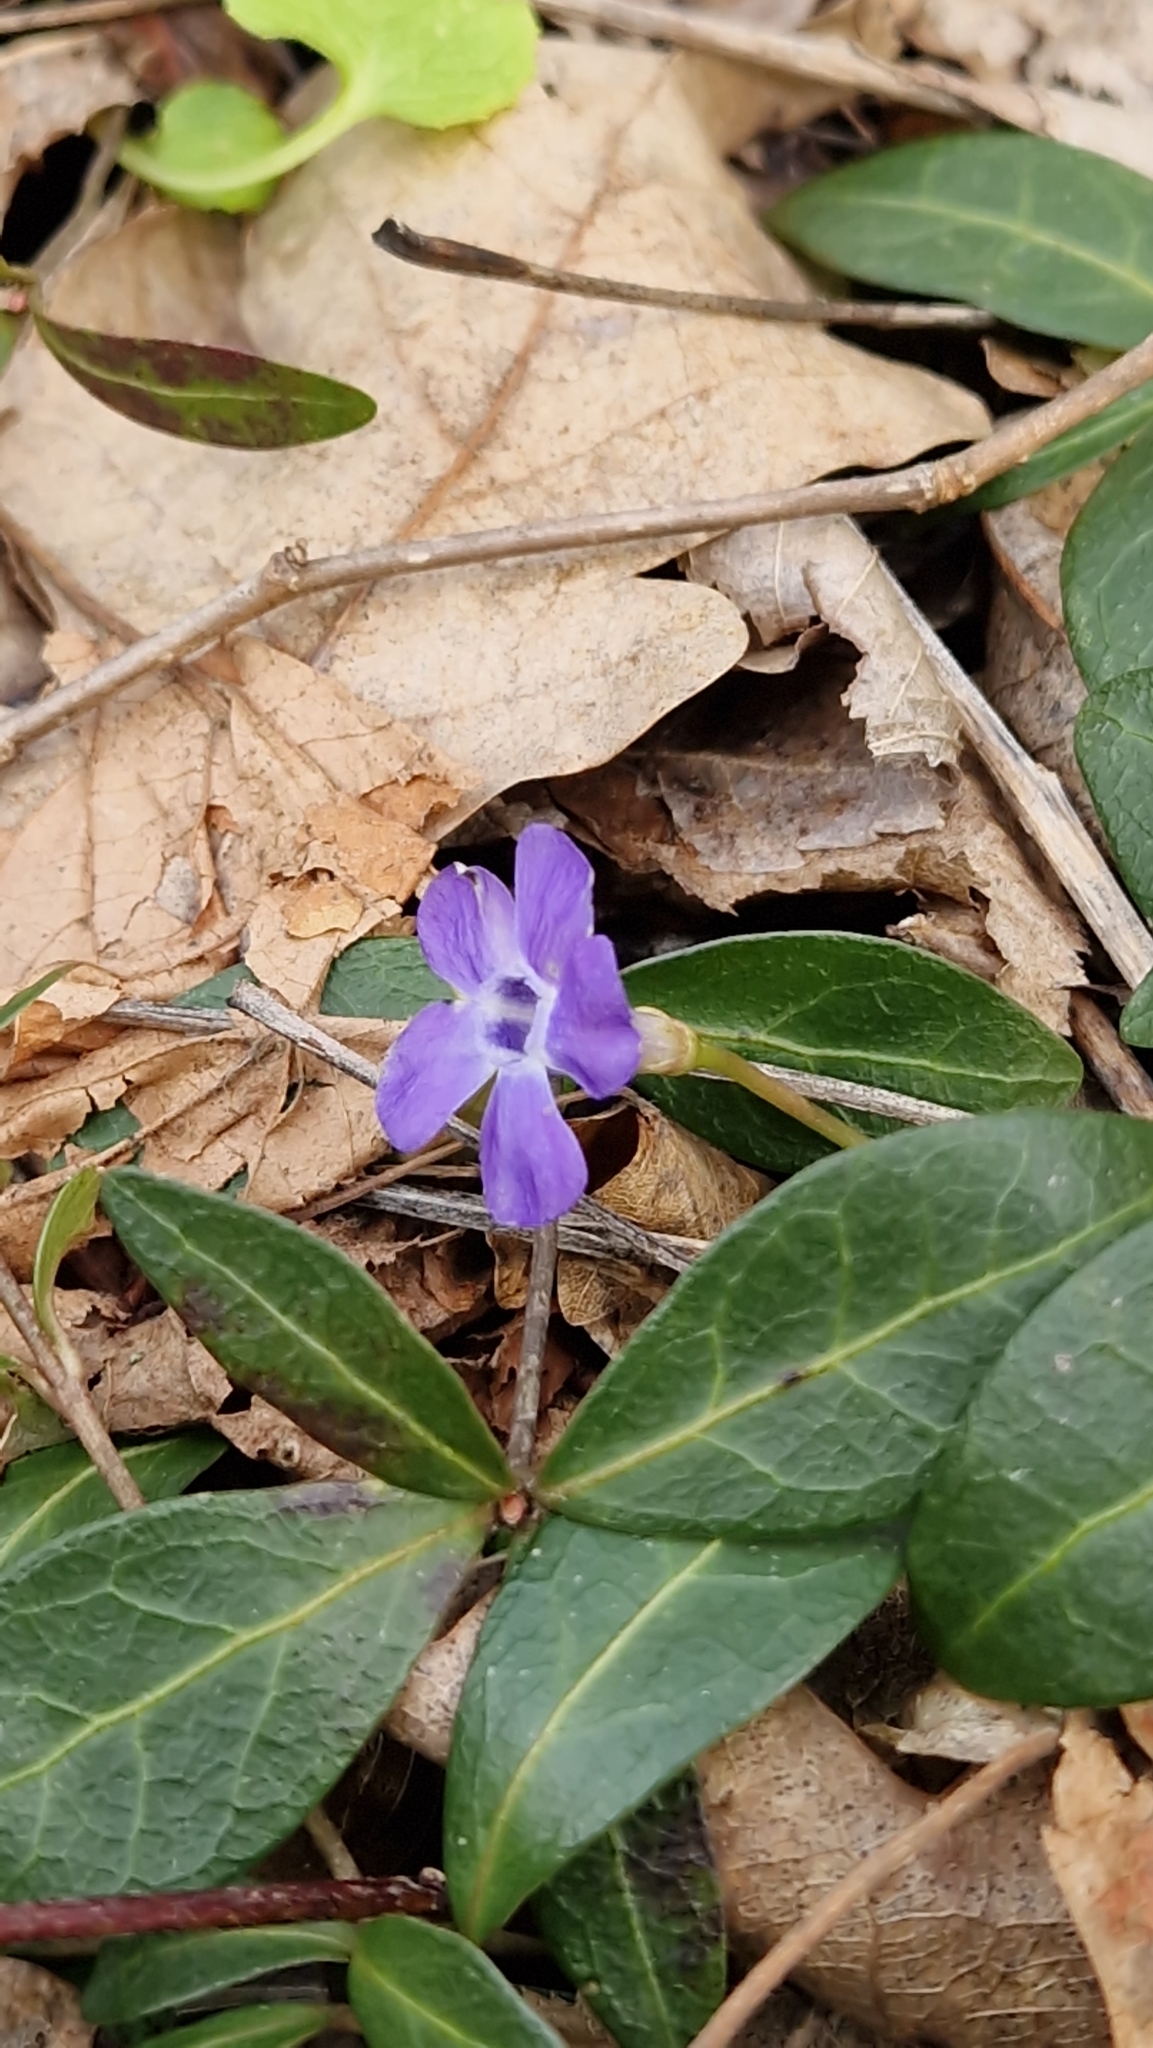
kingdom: Plantae
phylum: Tracheophyta
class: Magnoliopsida
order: Gentianales
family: Apocynaceae
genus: Vinca
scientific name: Vinca minor
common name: Lesser periwinkle
